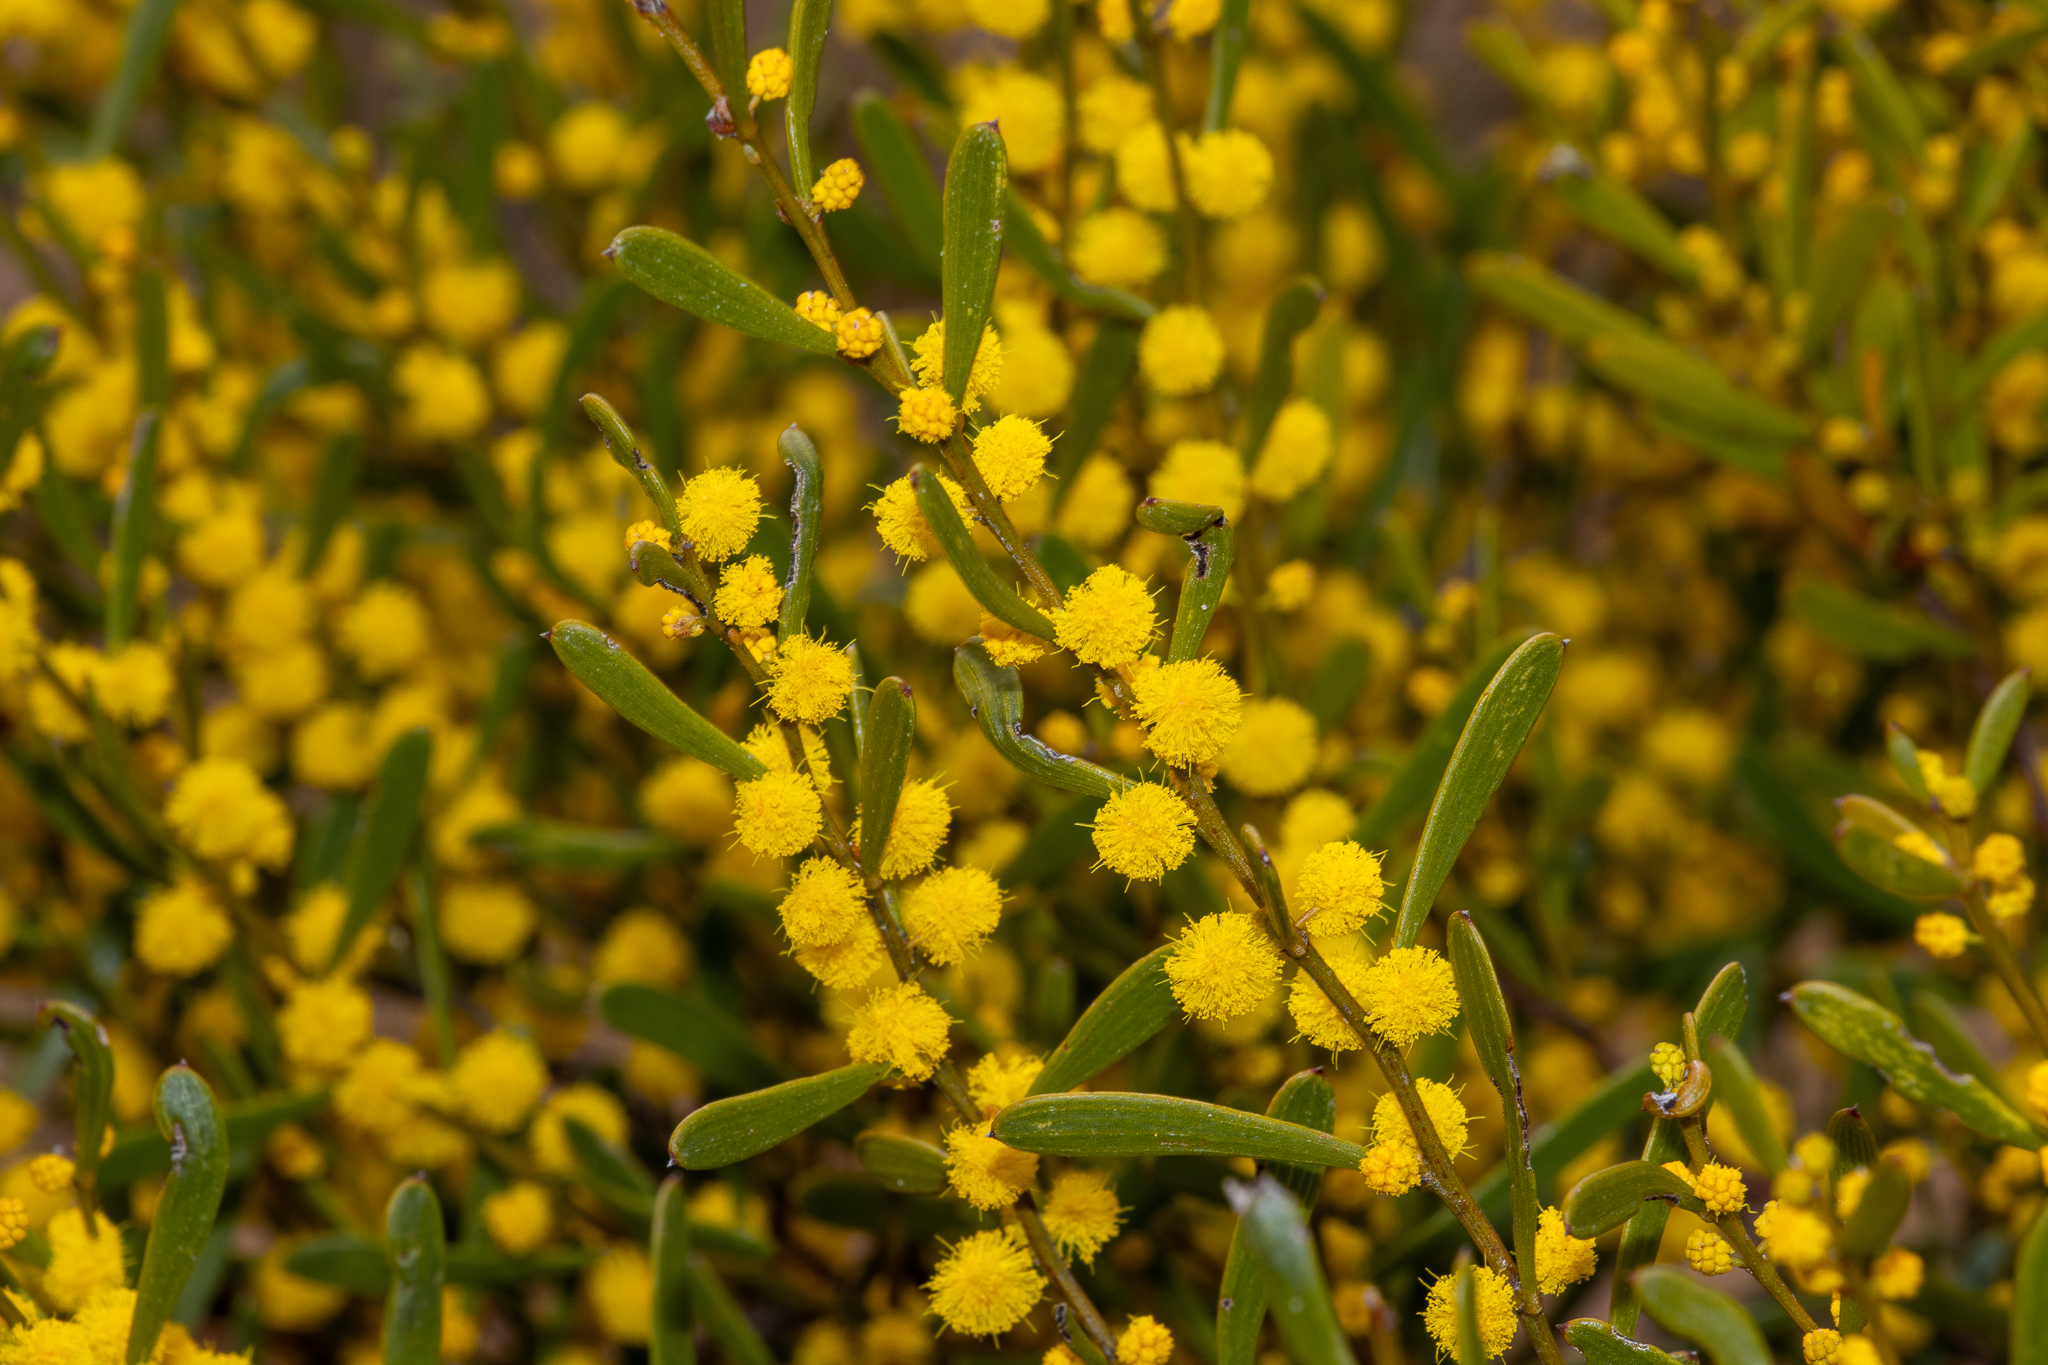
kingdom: Plantae
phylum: Tracheophyta
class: Magnoliopsida
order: Fabales
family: Fabaceae
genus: Acacia
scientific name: Acacia sclerophylla
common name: Hard-leaf wattle
